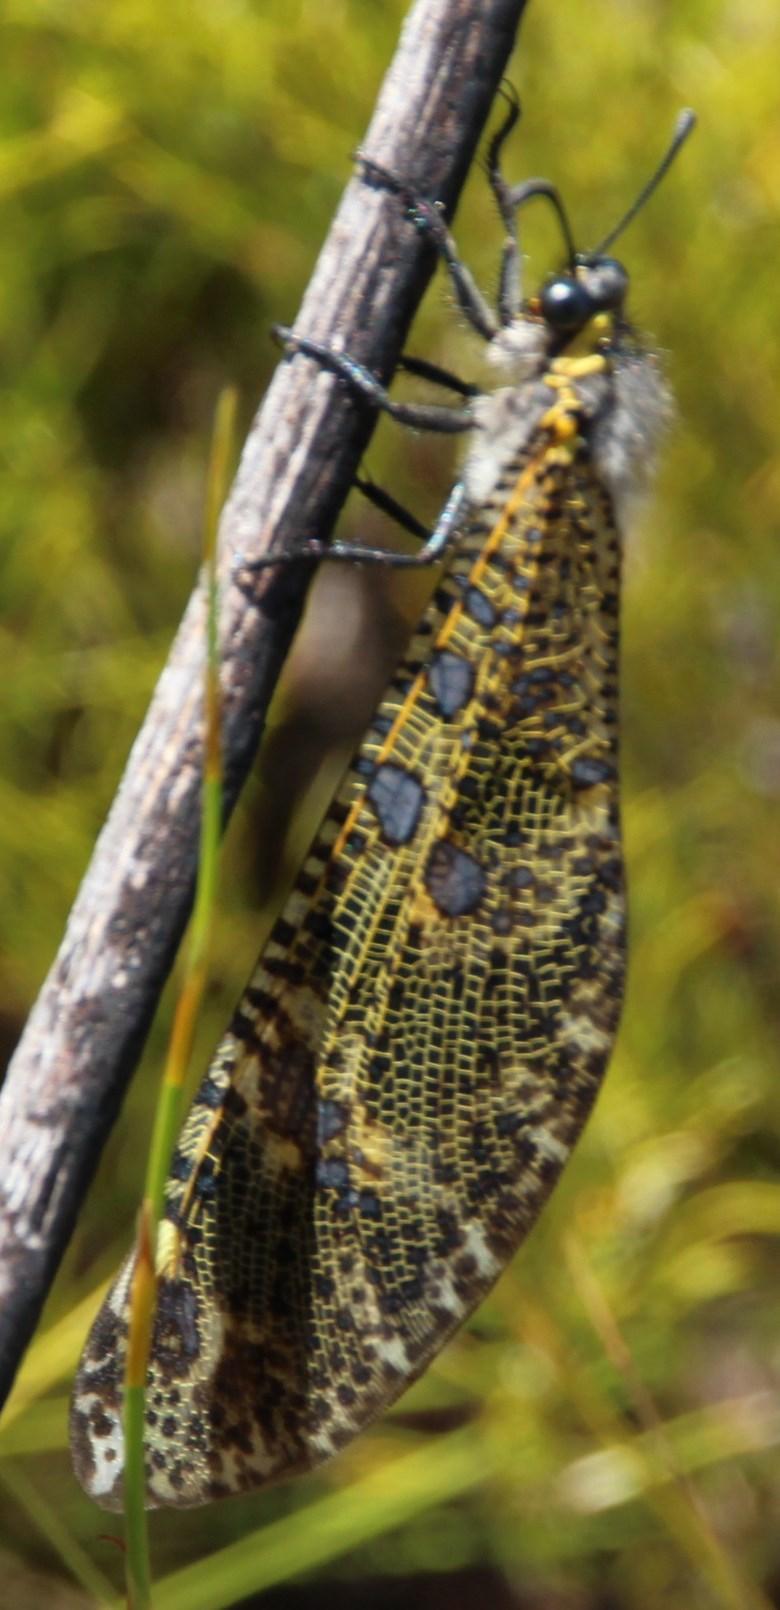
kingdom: Animalia
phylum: Arthropoda
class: Insecta
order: Neuroptera
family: Myrmeleontidae
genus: Palpares
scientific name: Palpares speciosus
